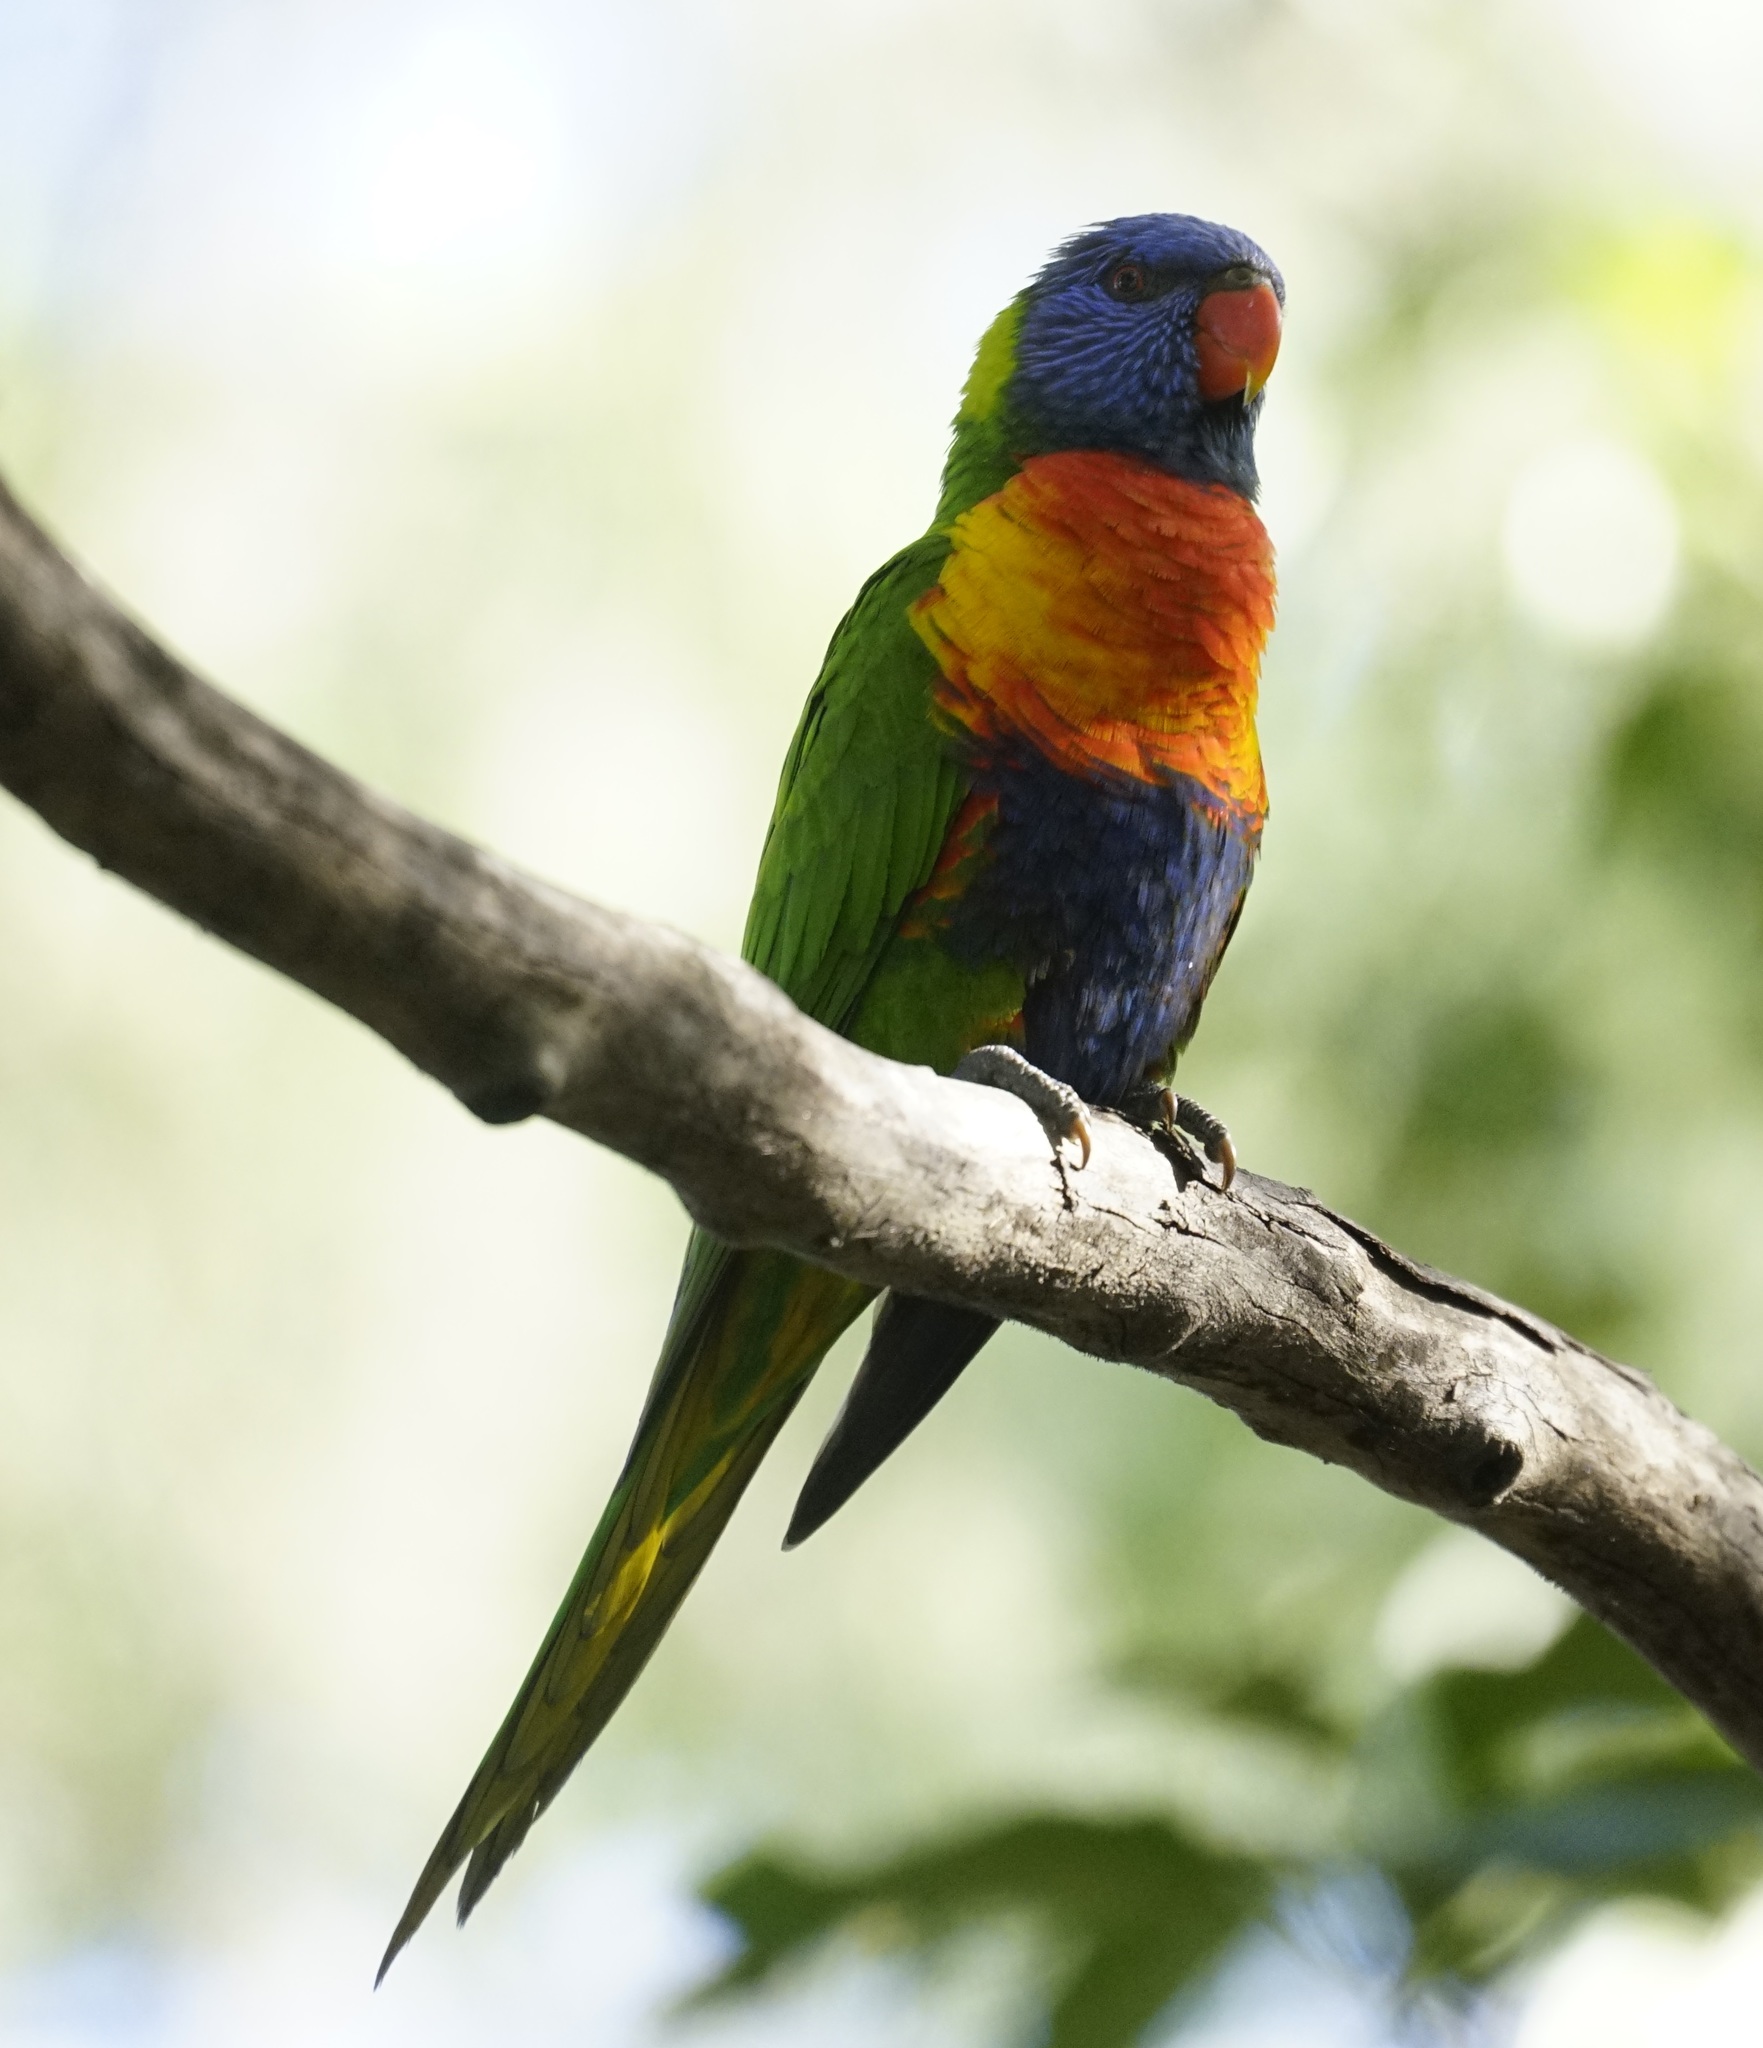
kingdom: Animalia
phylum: Chordata
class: Aves
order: Psittaciformes
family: Psittacidae
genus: Trichoglossus
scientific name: Trichoglossus haematodus
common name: Coconut lorikeet
